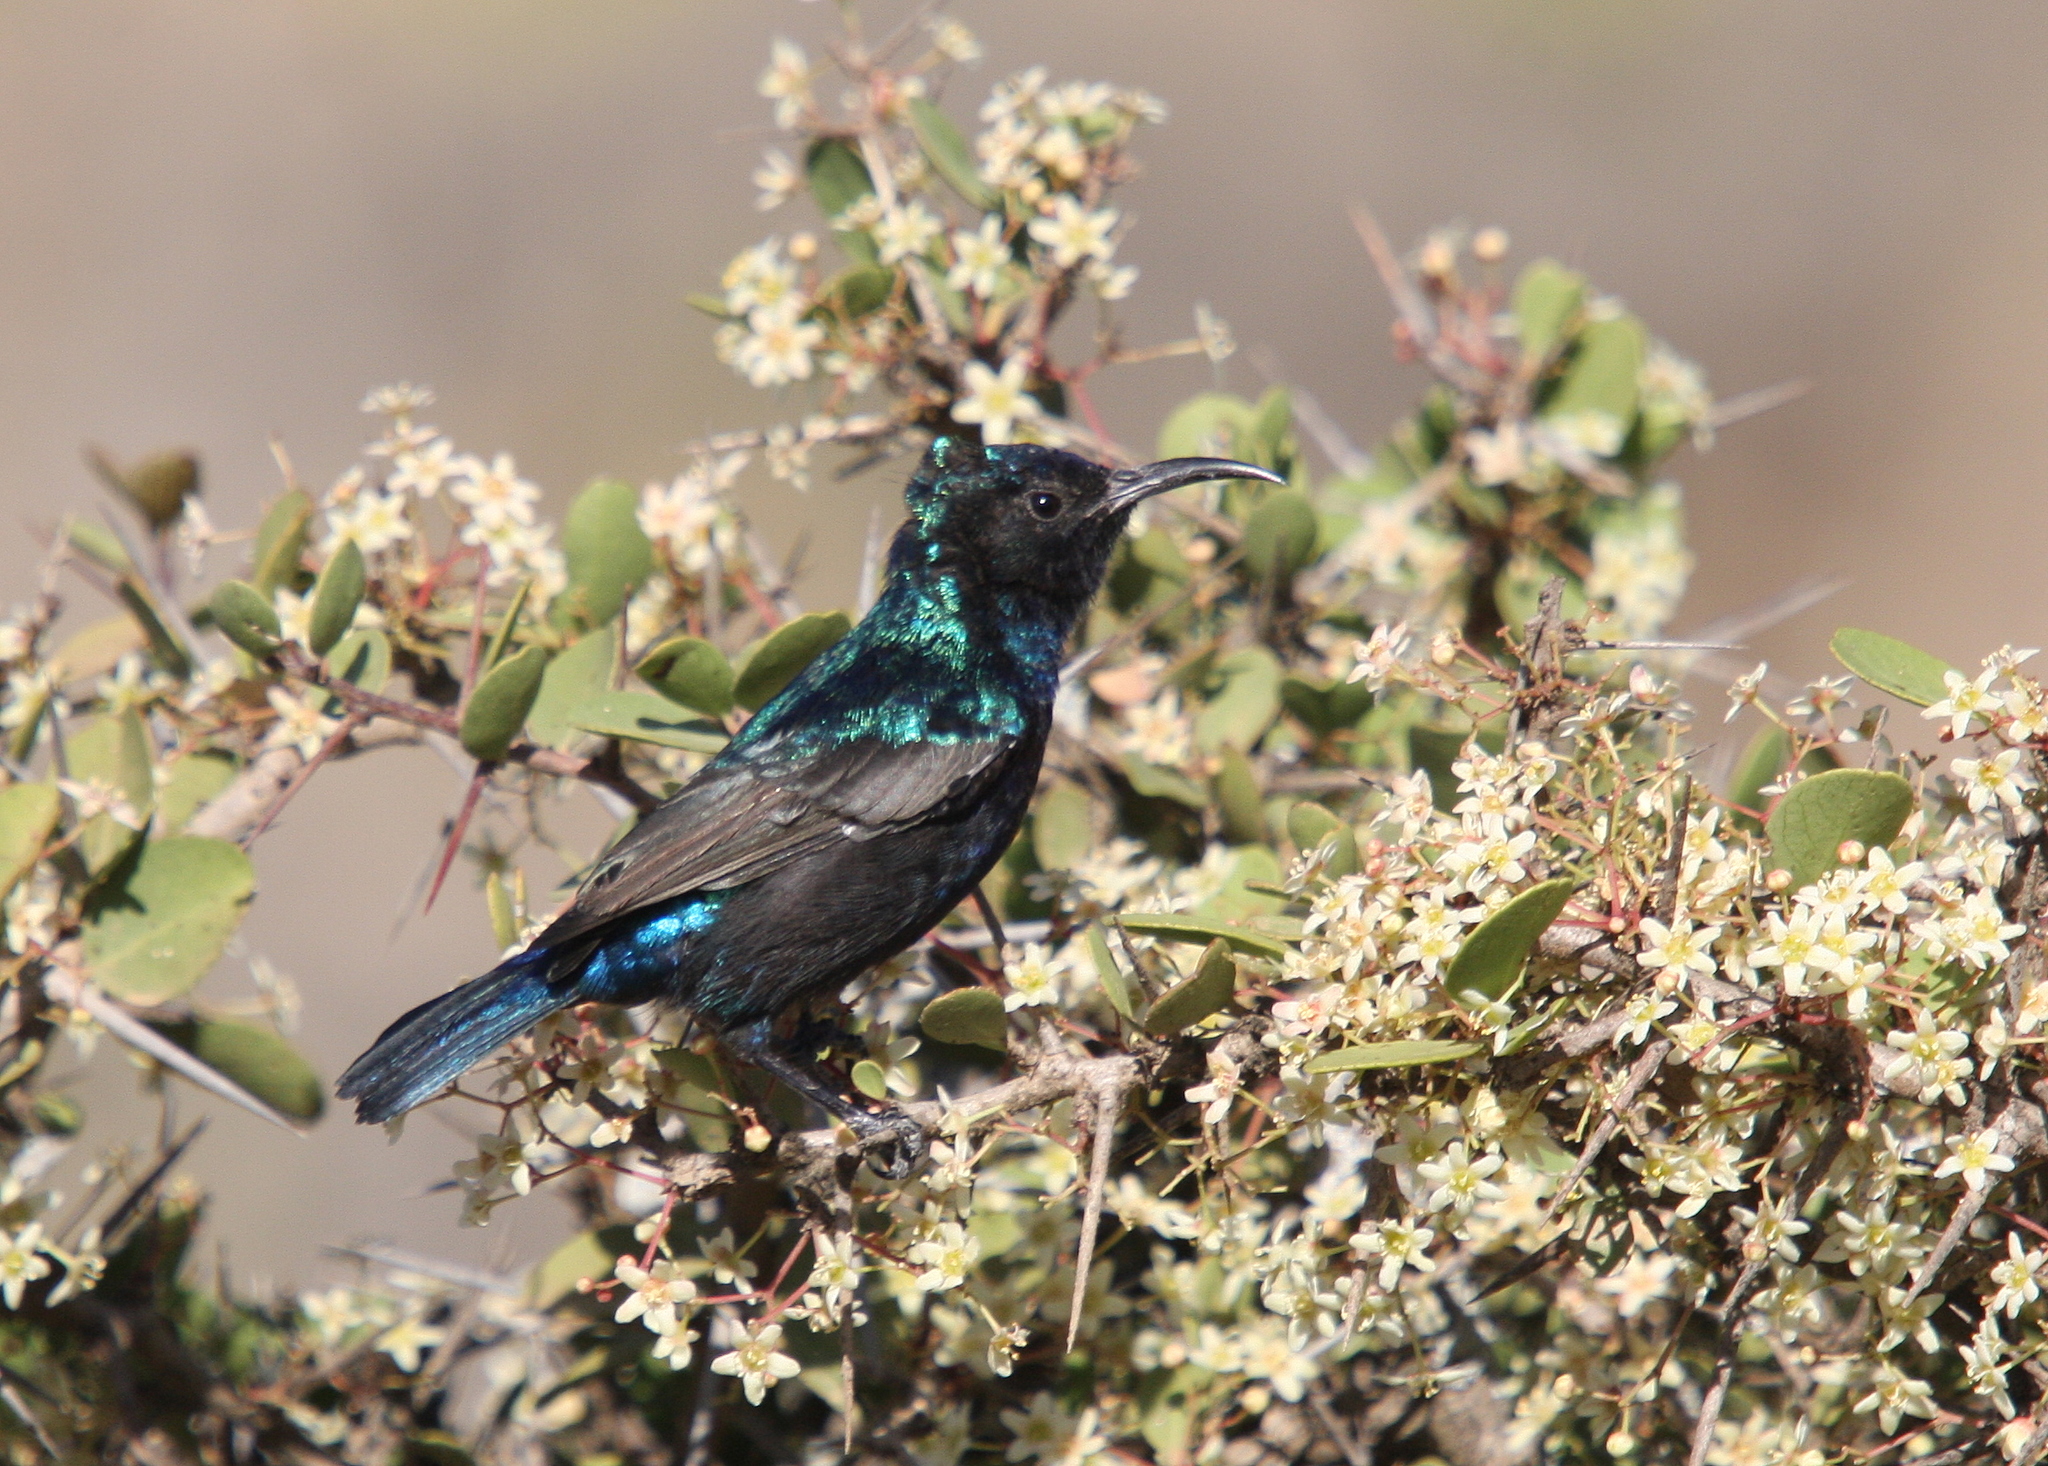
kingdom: Animalia
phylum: Chordata
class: Aves
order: Passeriformes
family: Nectariniidae
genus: Cinnyris
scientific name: Cinnyris osea
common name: Palestine sunbird
